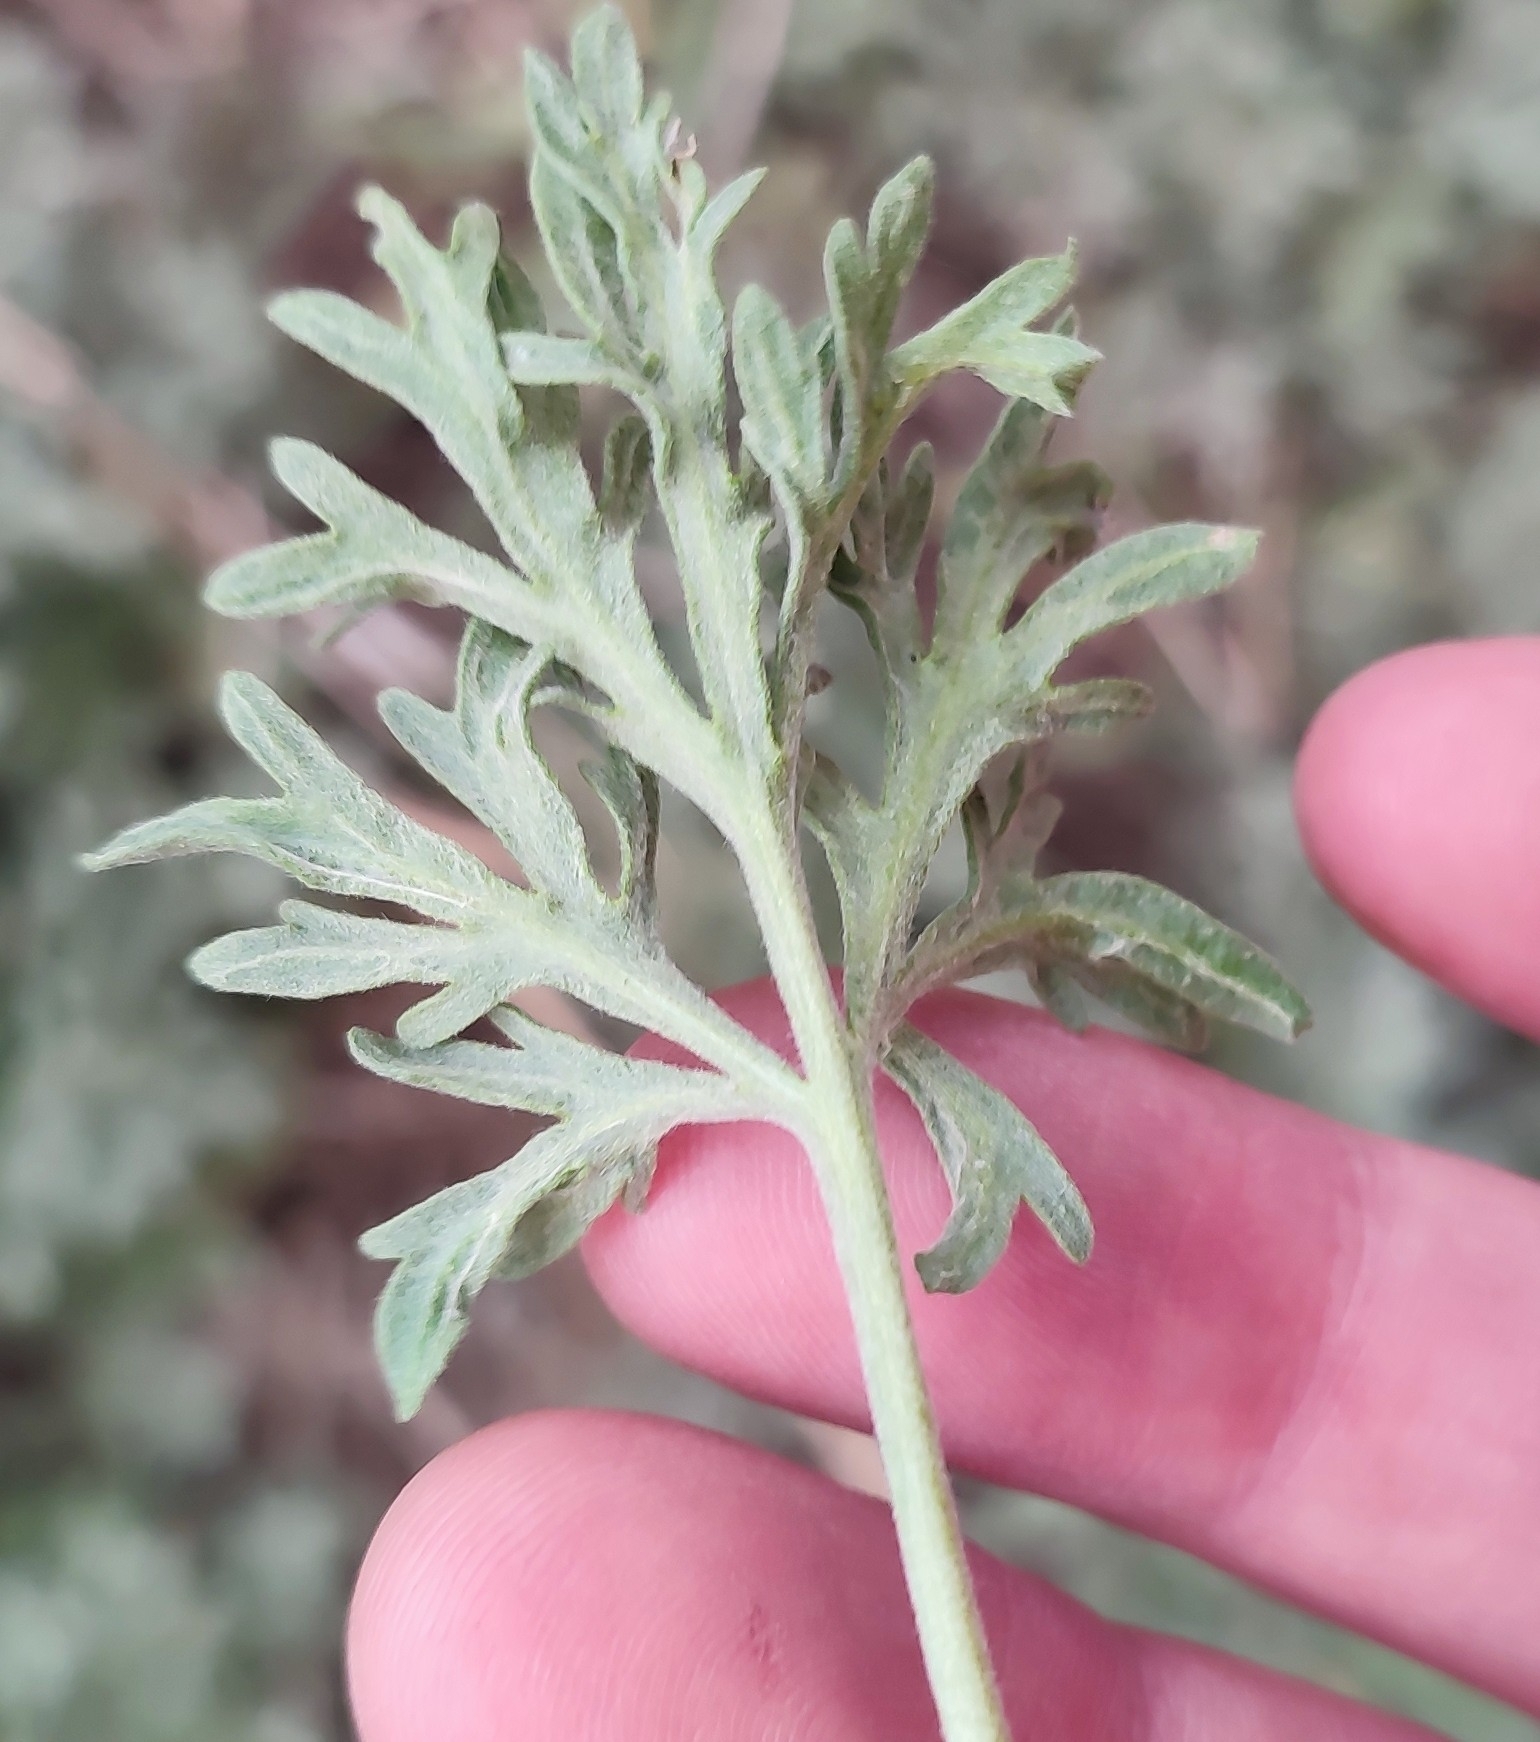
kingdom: Plantae
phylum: Tracheophyta
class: Magnoliopsida
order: Asterales
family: Asteraceae
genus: Artemisia
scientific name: Artemisia sieversiana
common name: Sieversian wormwood
